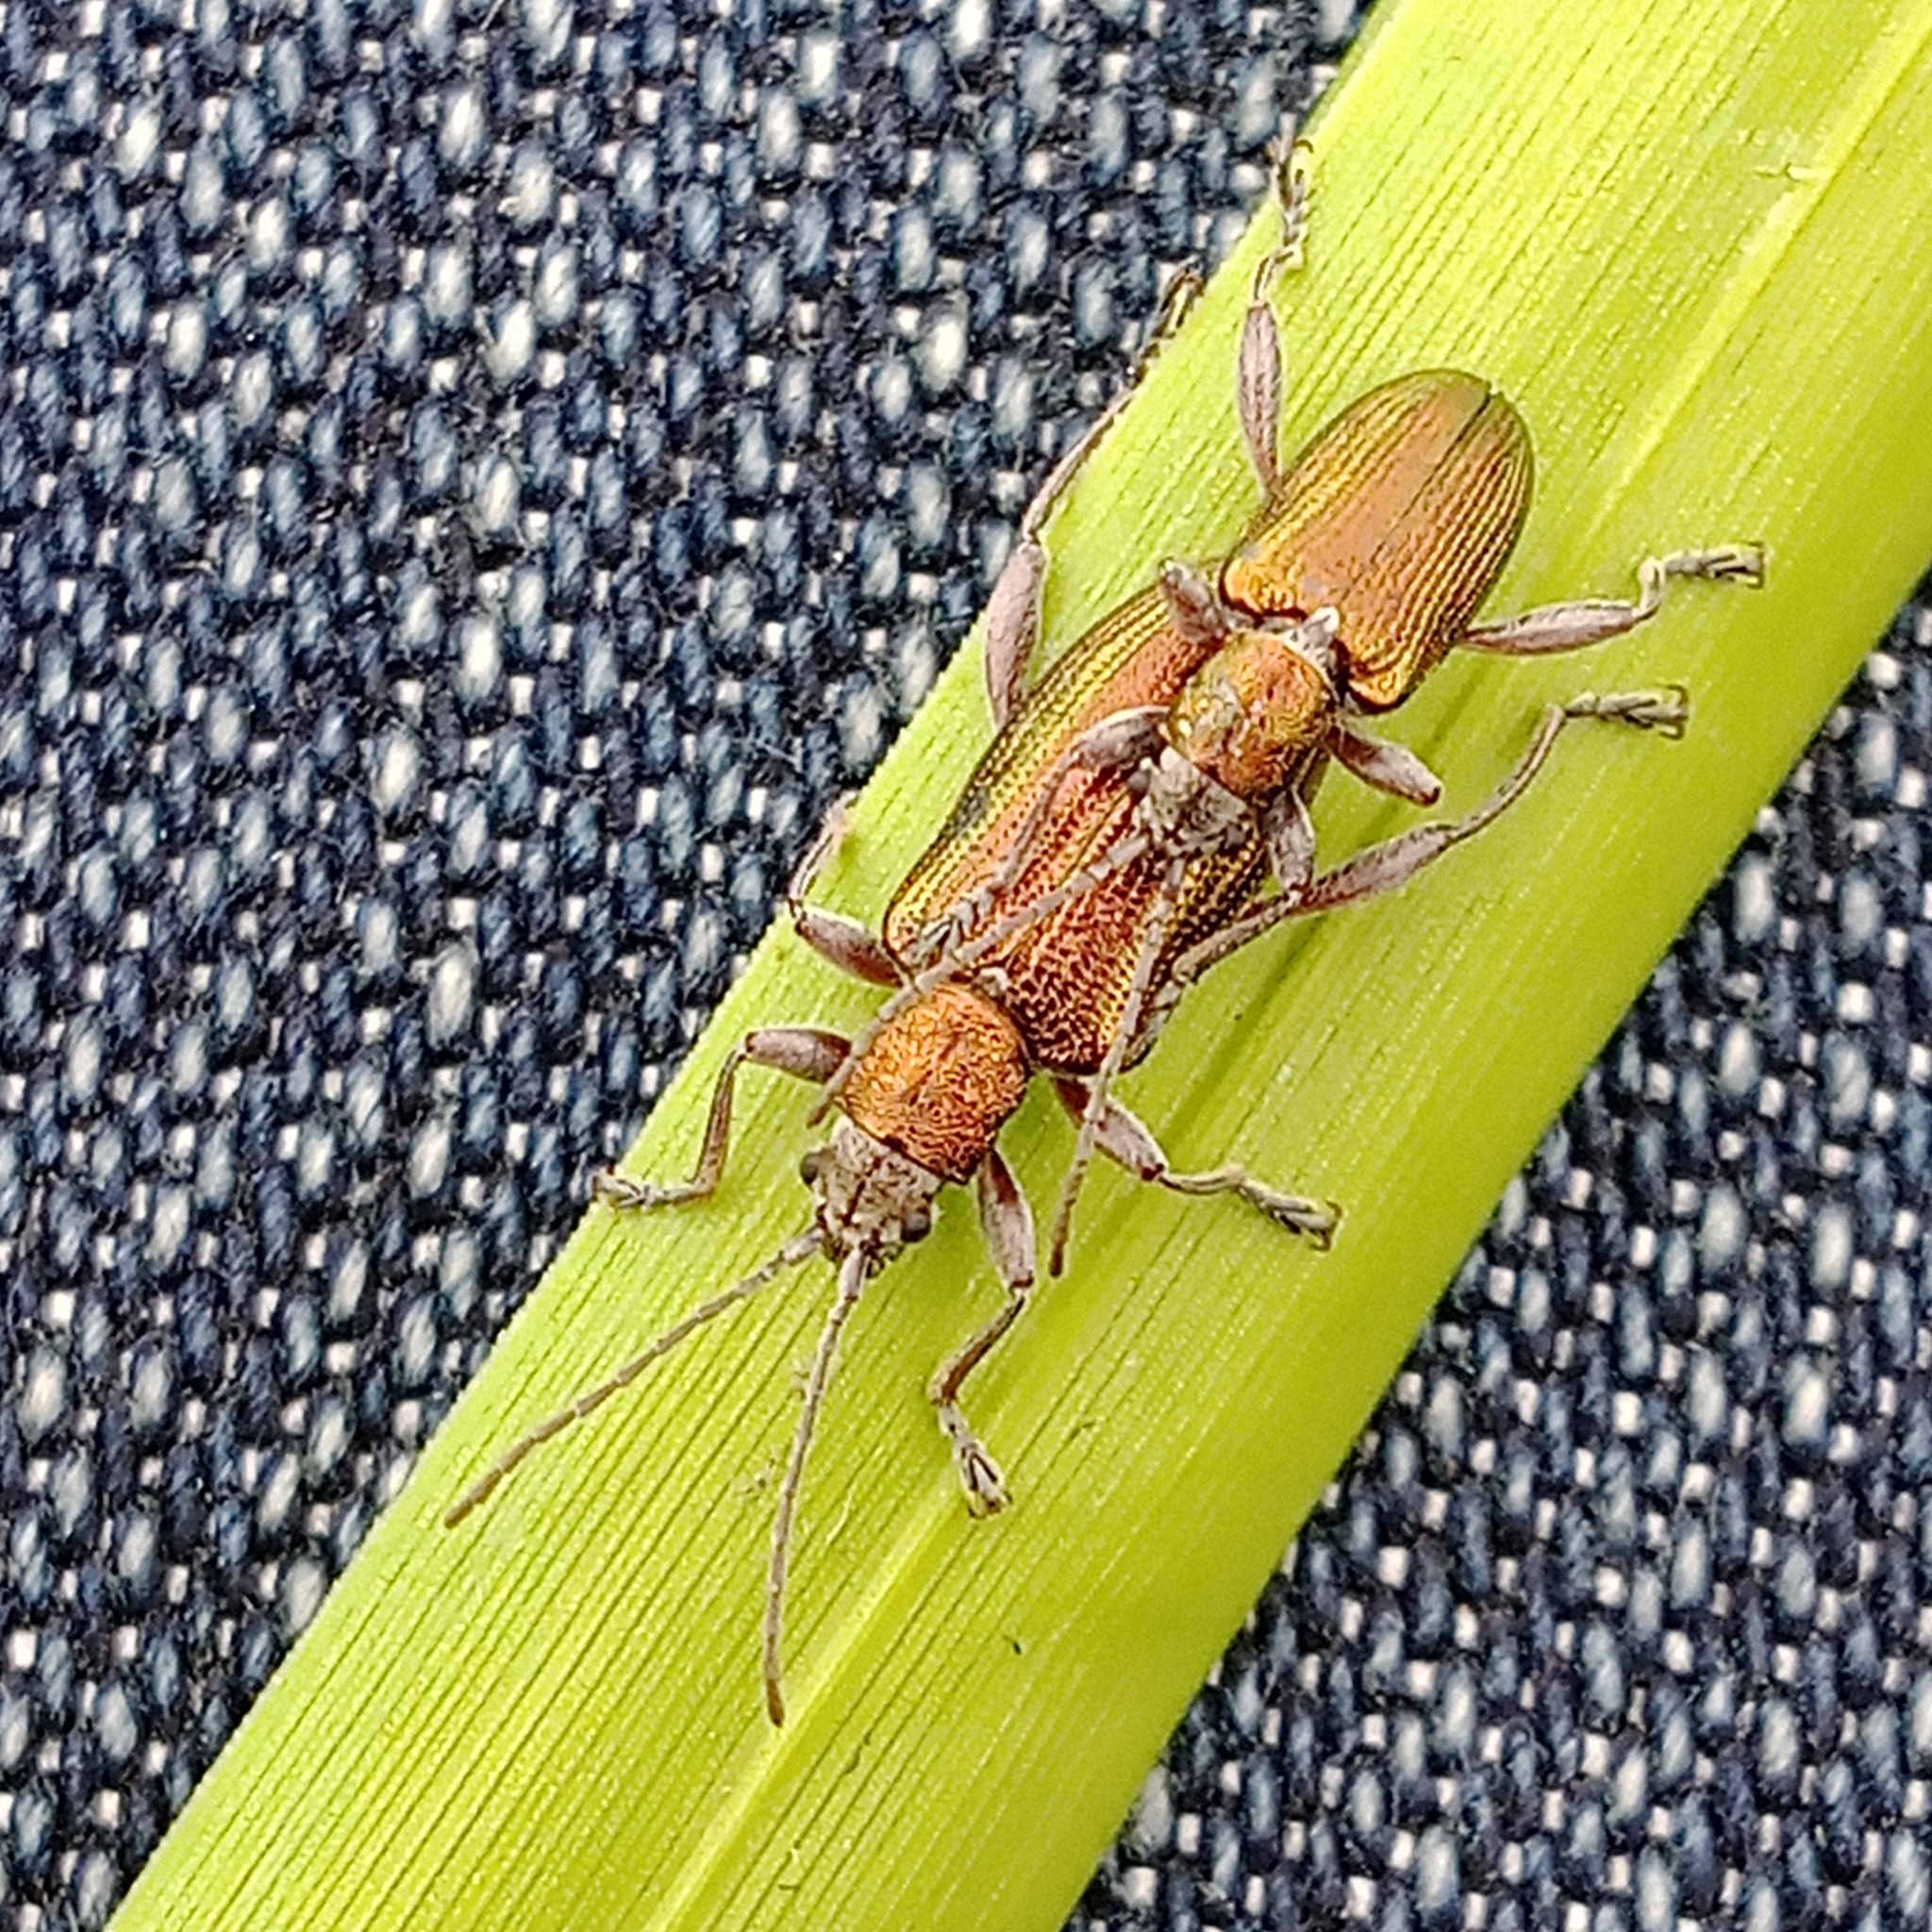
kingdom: Animalia
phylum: Arthropoda
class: Insecta
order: Coleoptera
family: Chrysomelidae
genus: Donacia
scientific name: Donacia semicuprea
